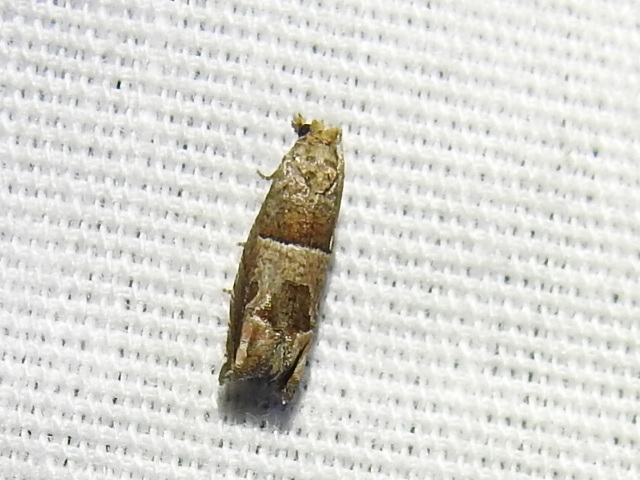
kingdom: Animalia
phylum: Arthropoda
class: Insecta
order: Lepidoptera
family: Tortricidae
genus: Sonia
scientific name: Sonia constrictana
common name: Constricted sonia moth
